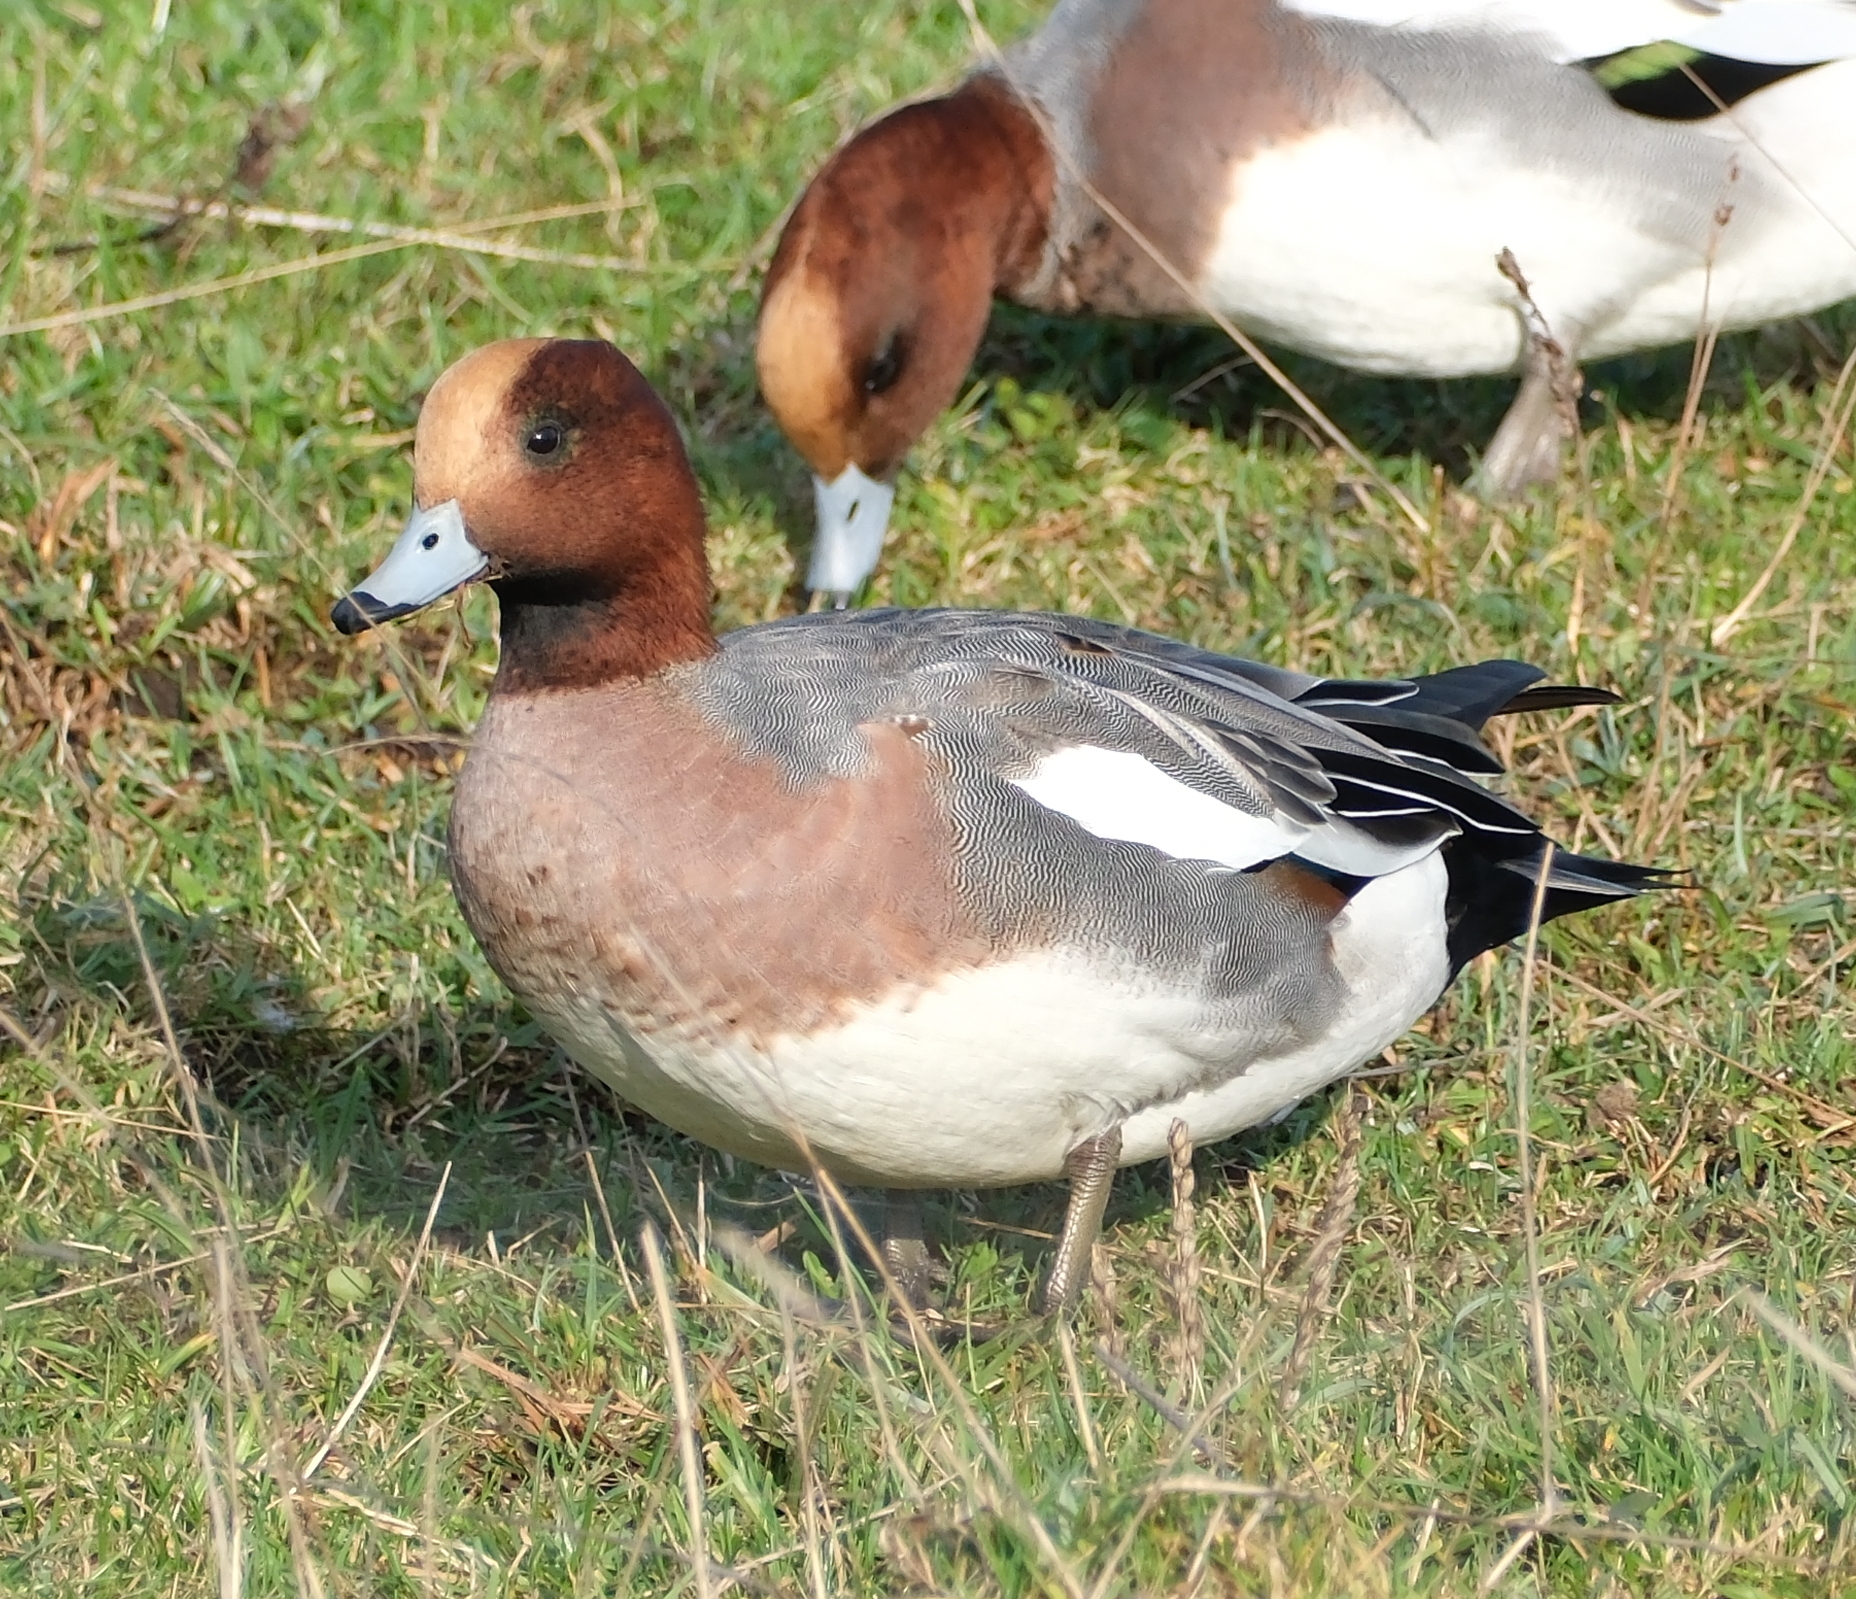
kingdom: Animalia
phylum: Chordata
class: Aves
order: Anseriformes
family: Anatidae
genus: Mareca
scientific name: Mareca penelope
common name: Eurasian wigeon
